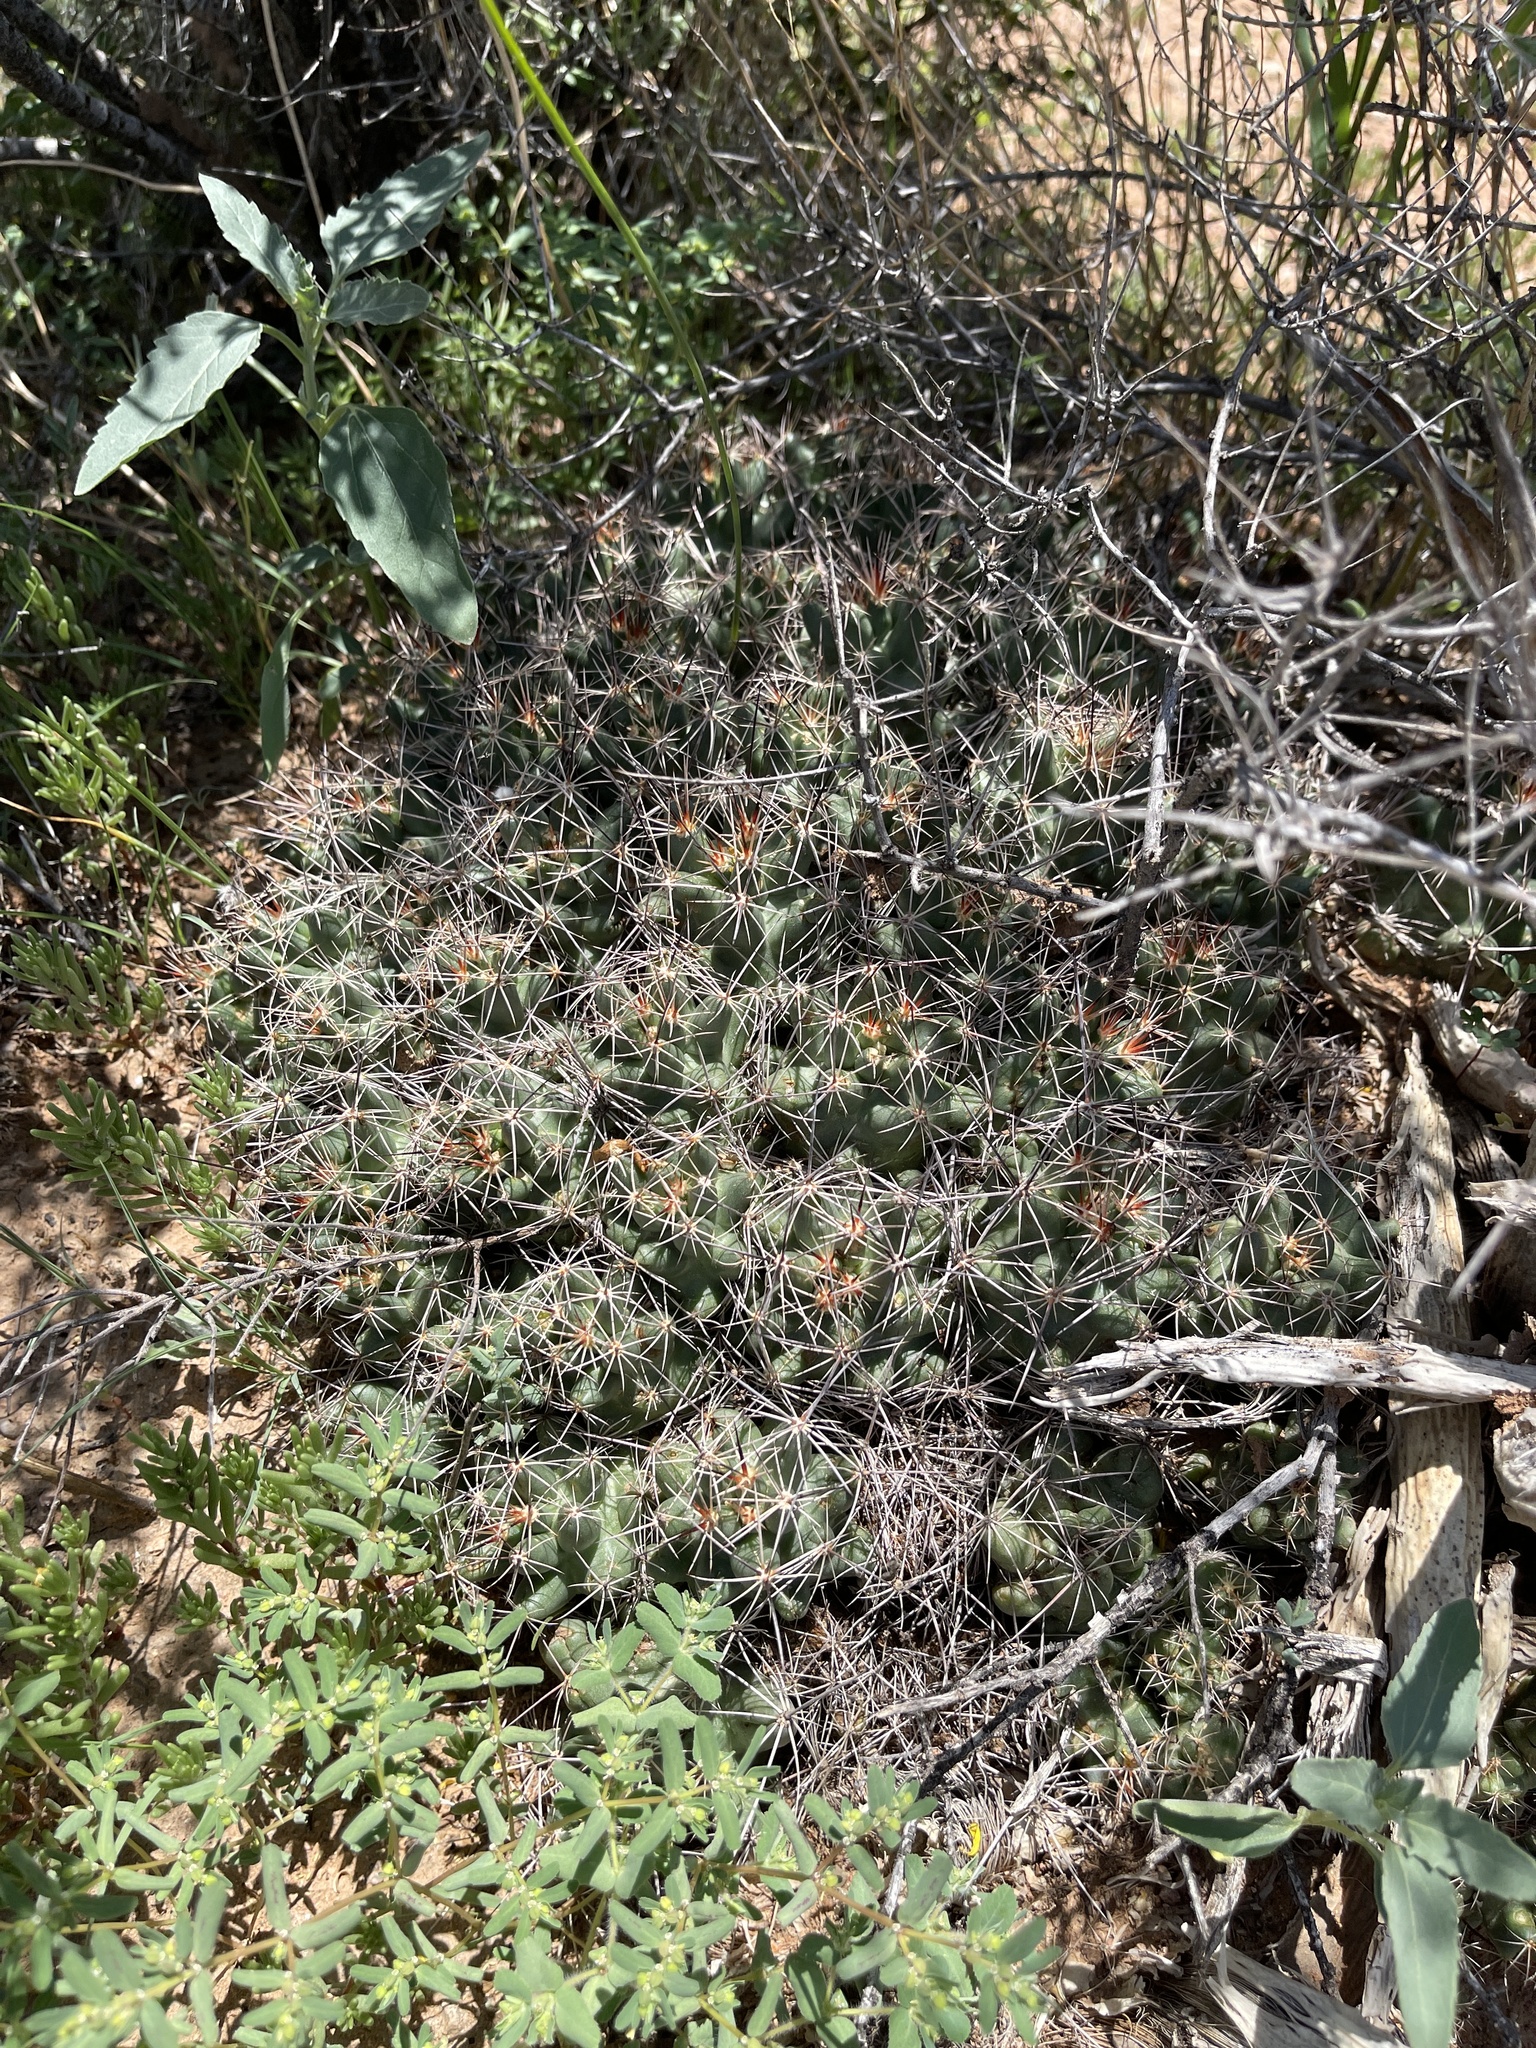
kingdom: Plantae
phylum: Tracheophyta
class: Magnoliopsida
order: Caryophyllales
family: Cactaceae
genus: Coryphantha
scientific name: Coryphantha macromeris
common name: Nipple beehive cactus
